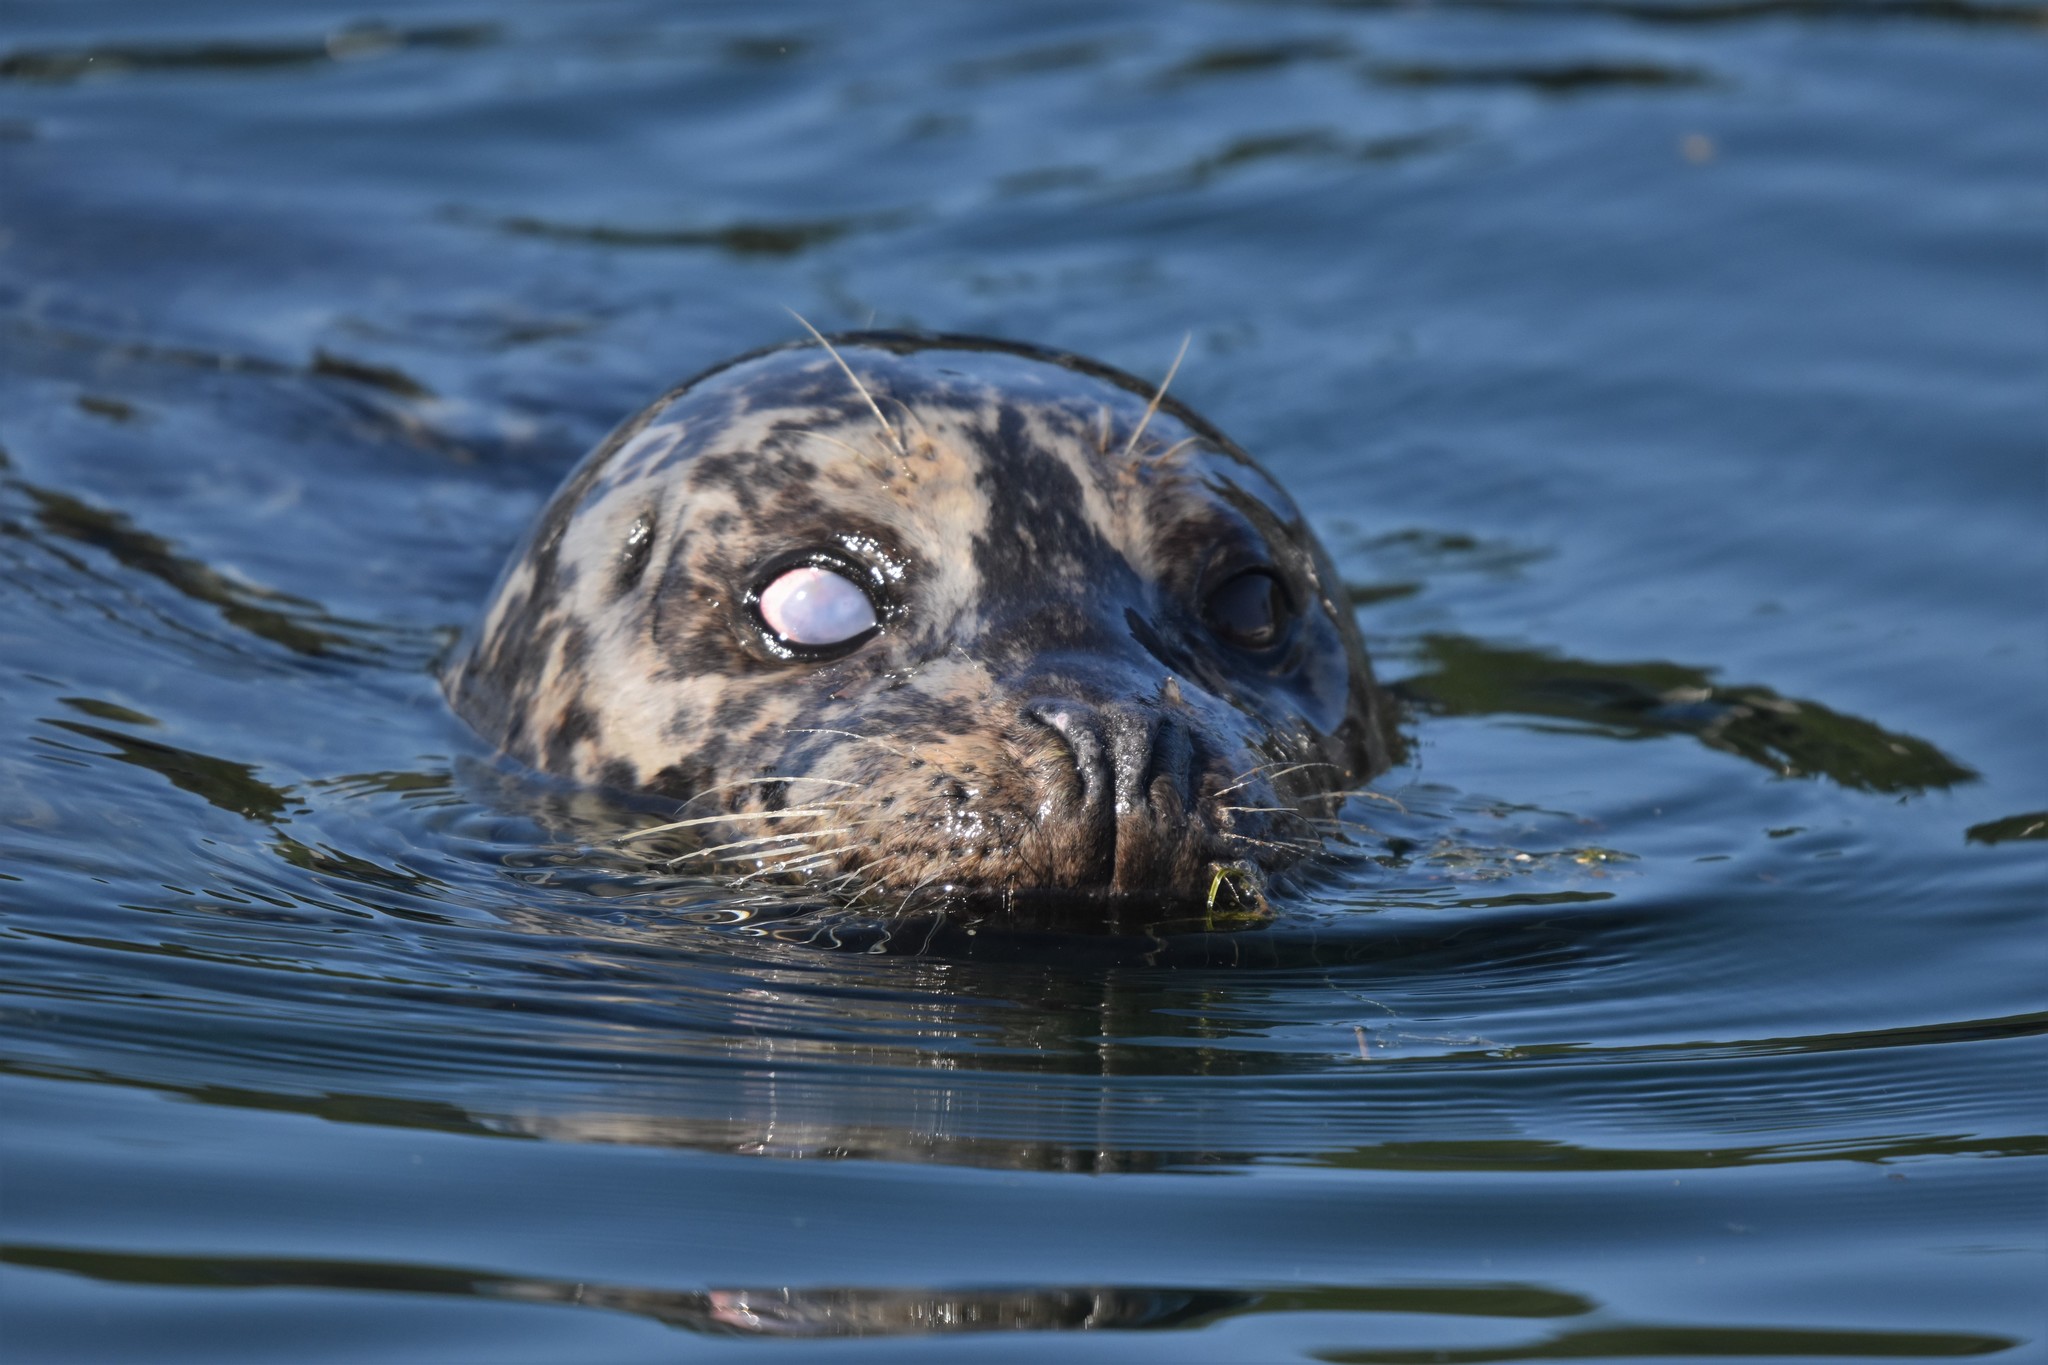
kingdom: Animalia
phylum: Chordata
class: Mammalia
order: Carnivora
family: Phocidae
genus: Phoca
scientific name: Phoca vitulina
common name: Harbor seal
